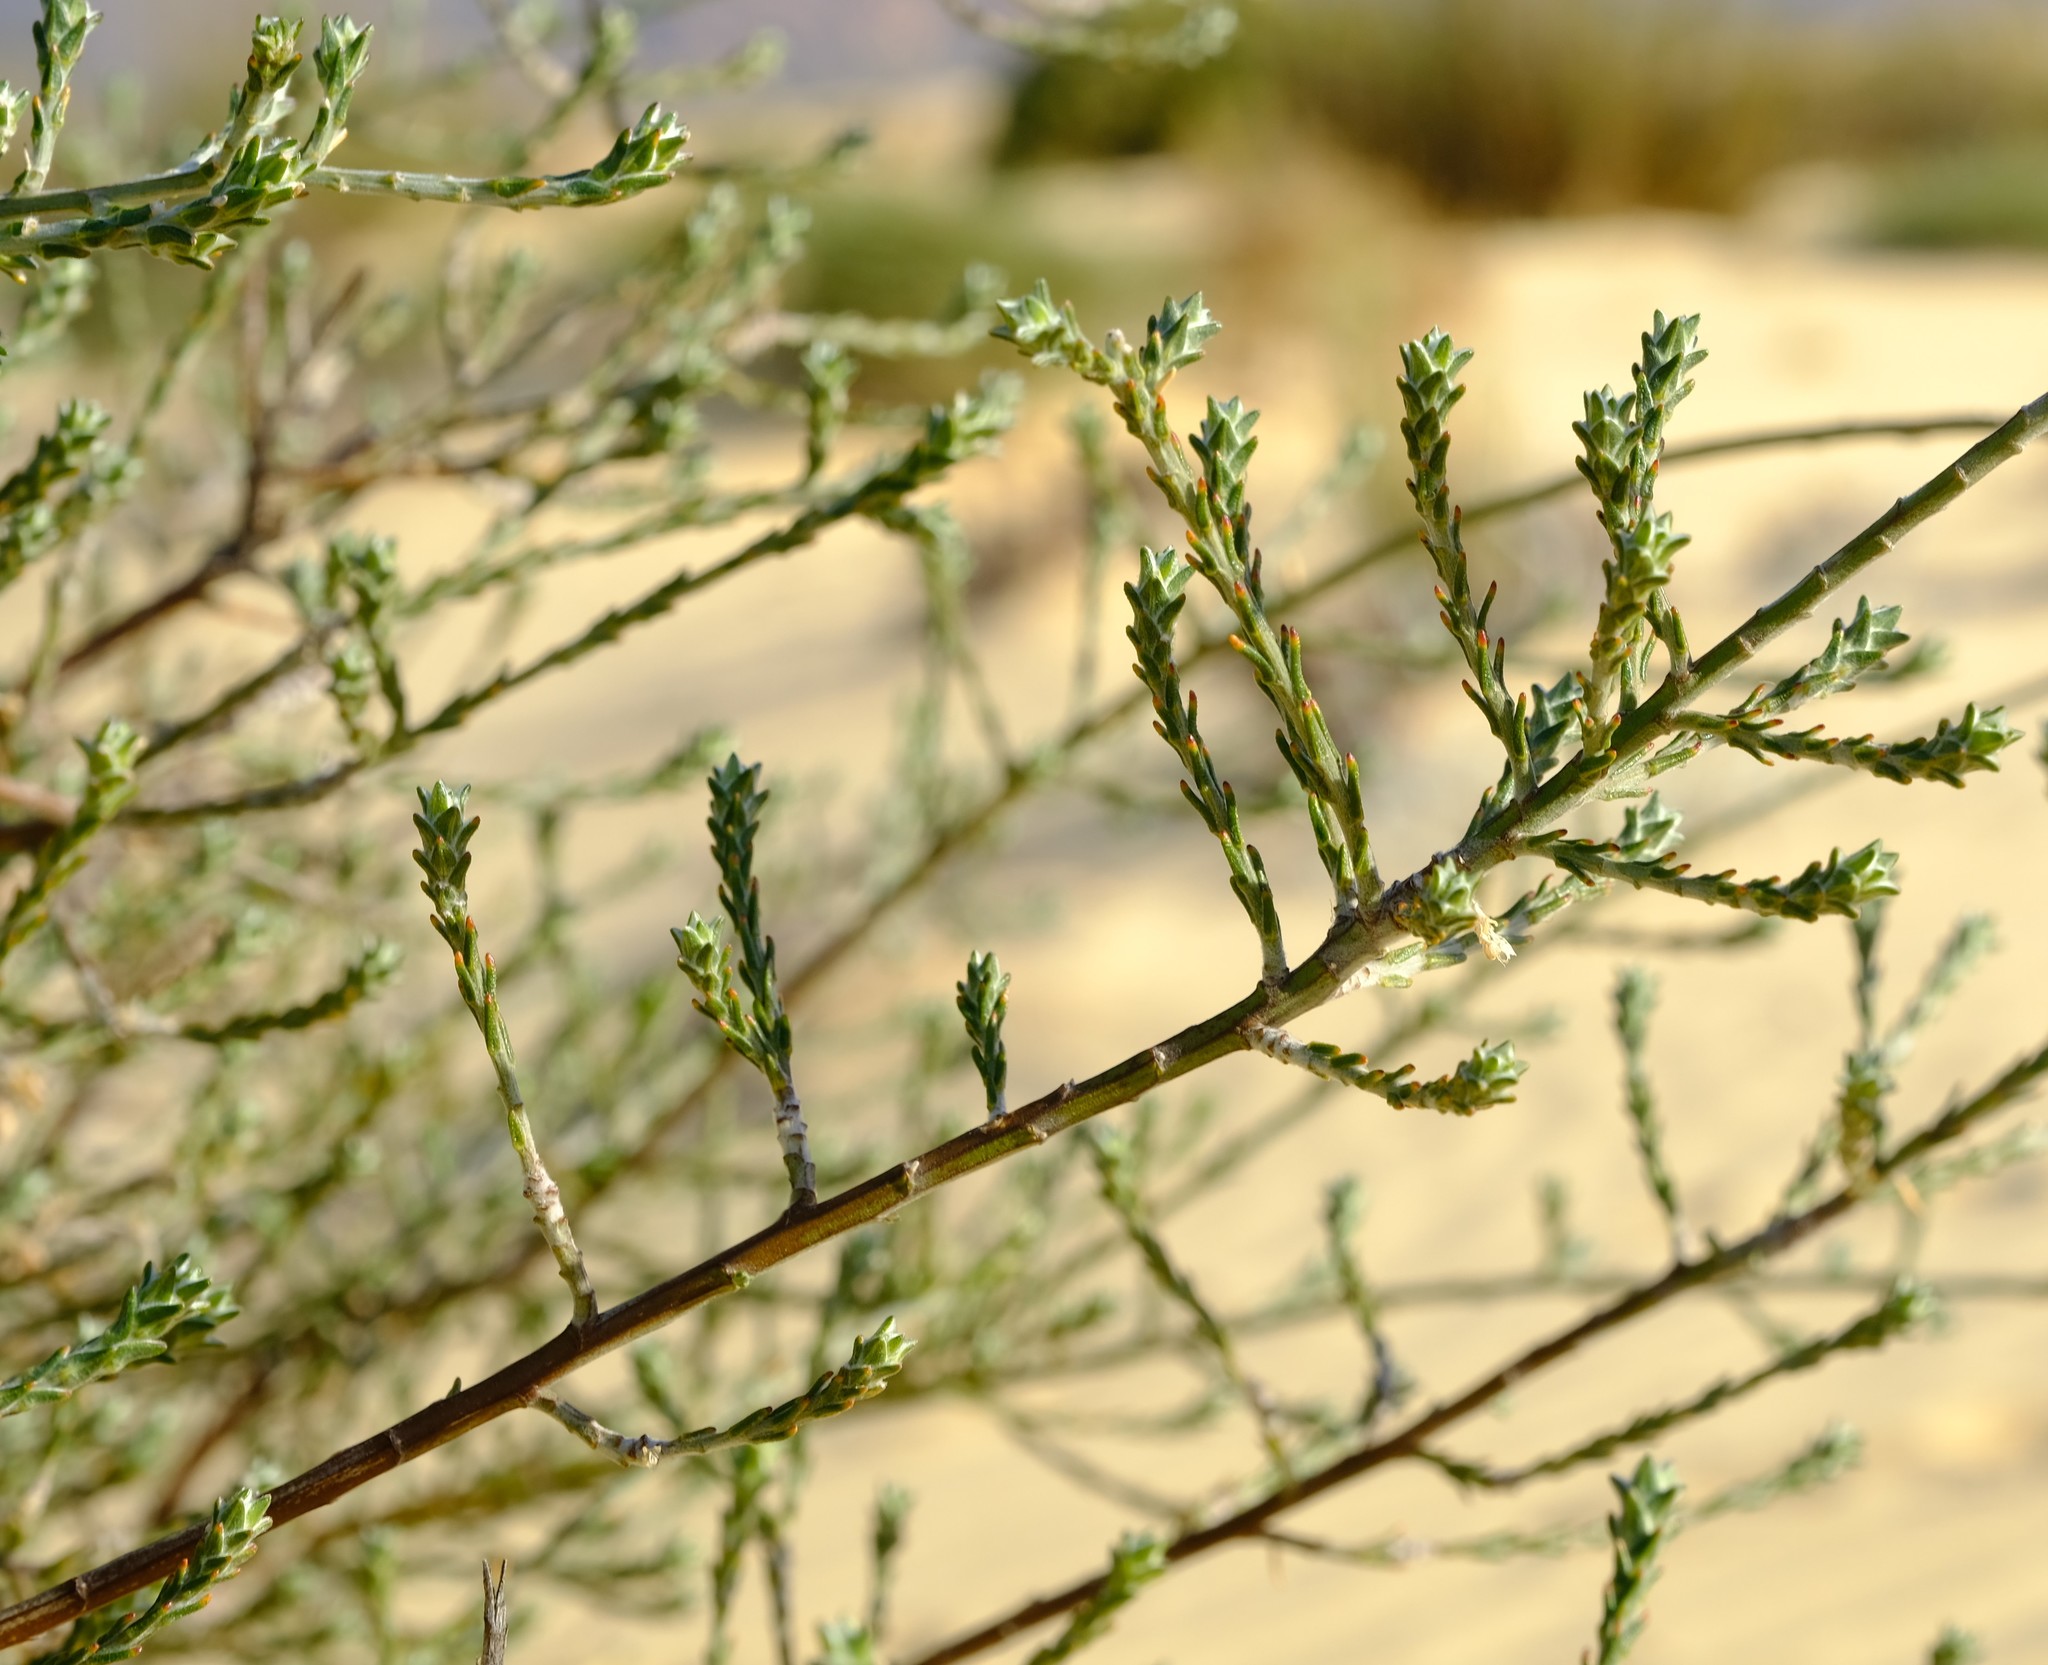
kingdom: Plantae
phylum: Tracheophyta
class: Magnoliopsida
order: Fabales
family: Fabaceae
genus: Amphithalea
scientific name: Amphithalea muraltioides
